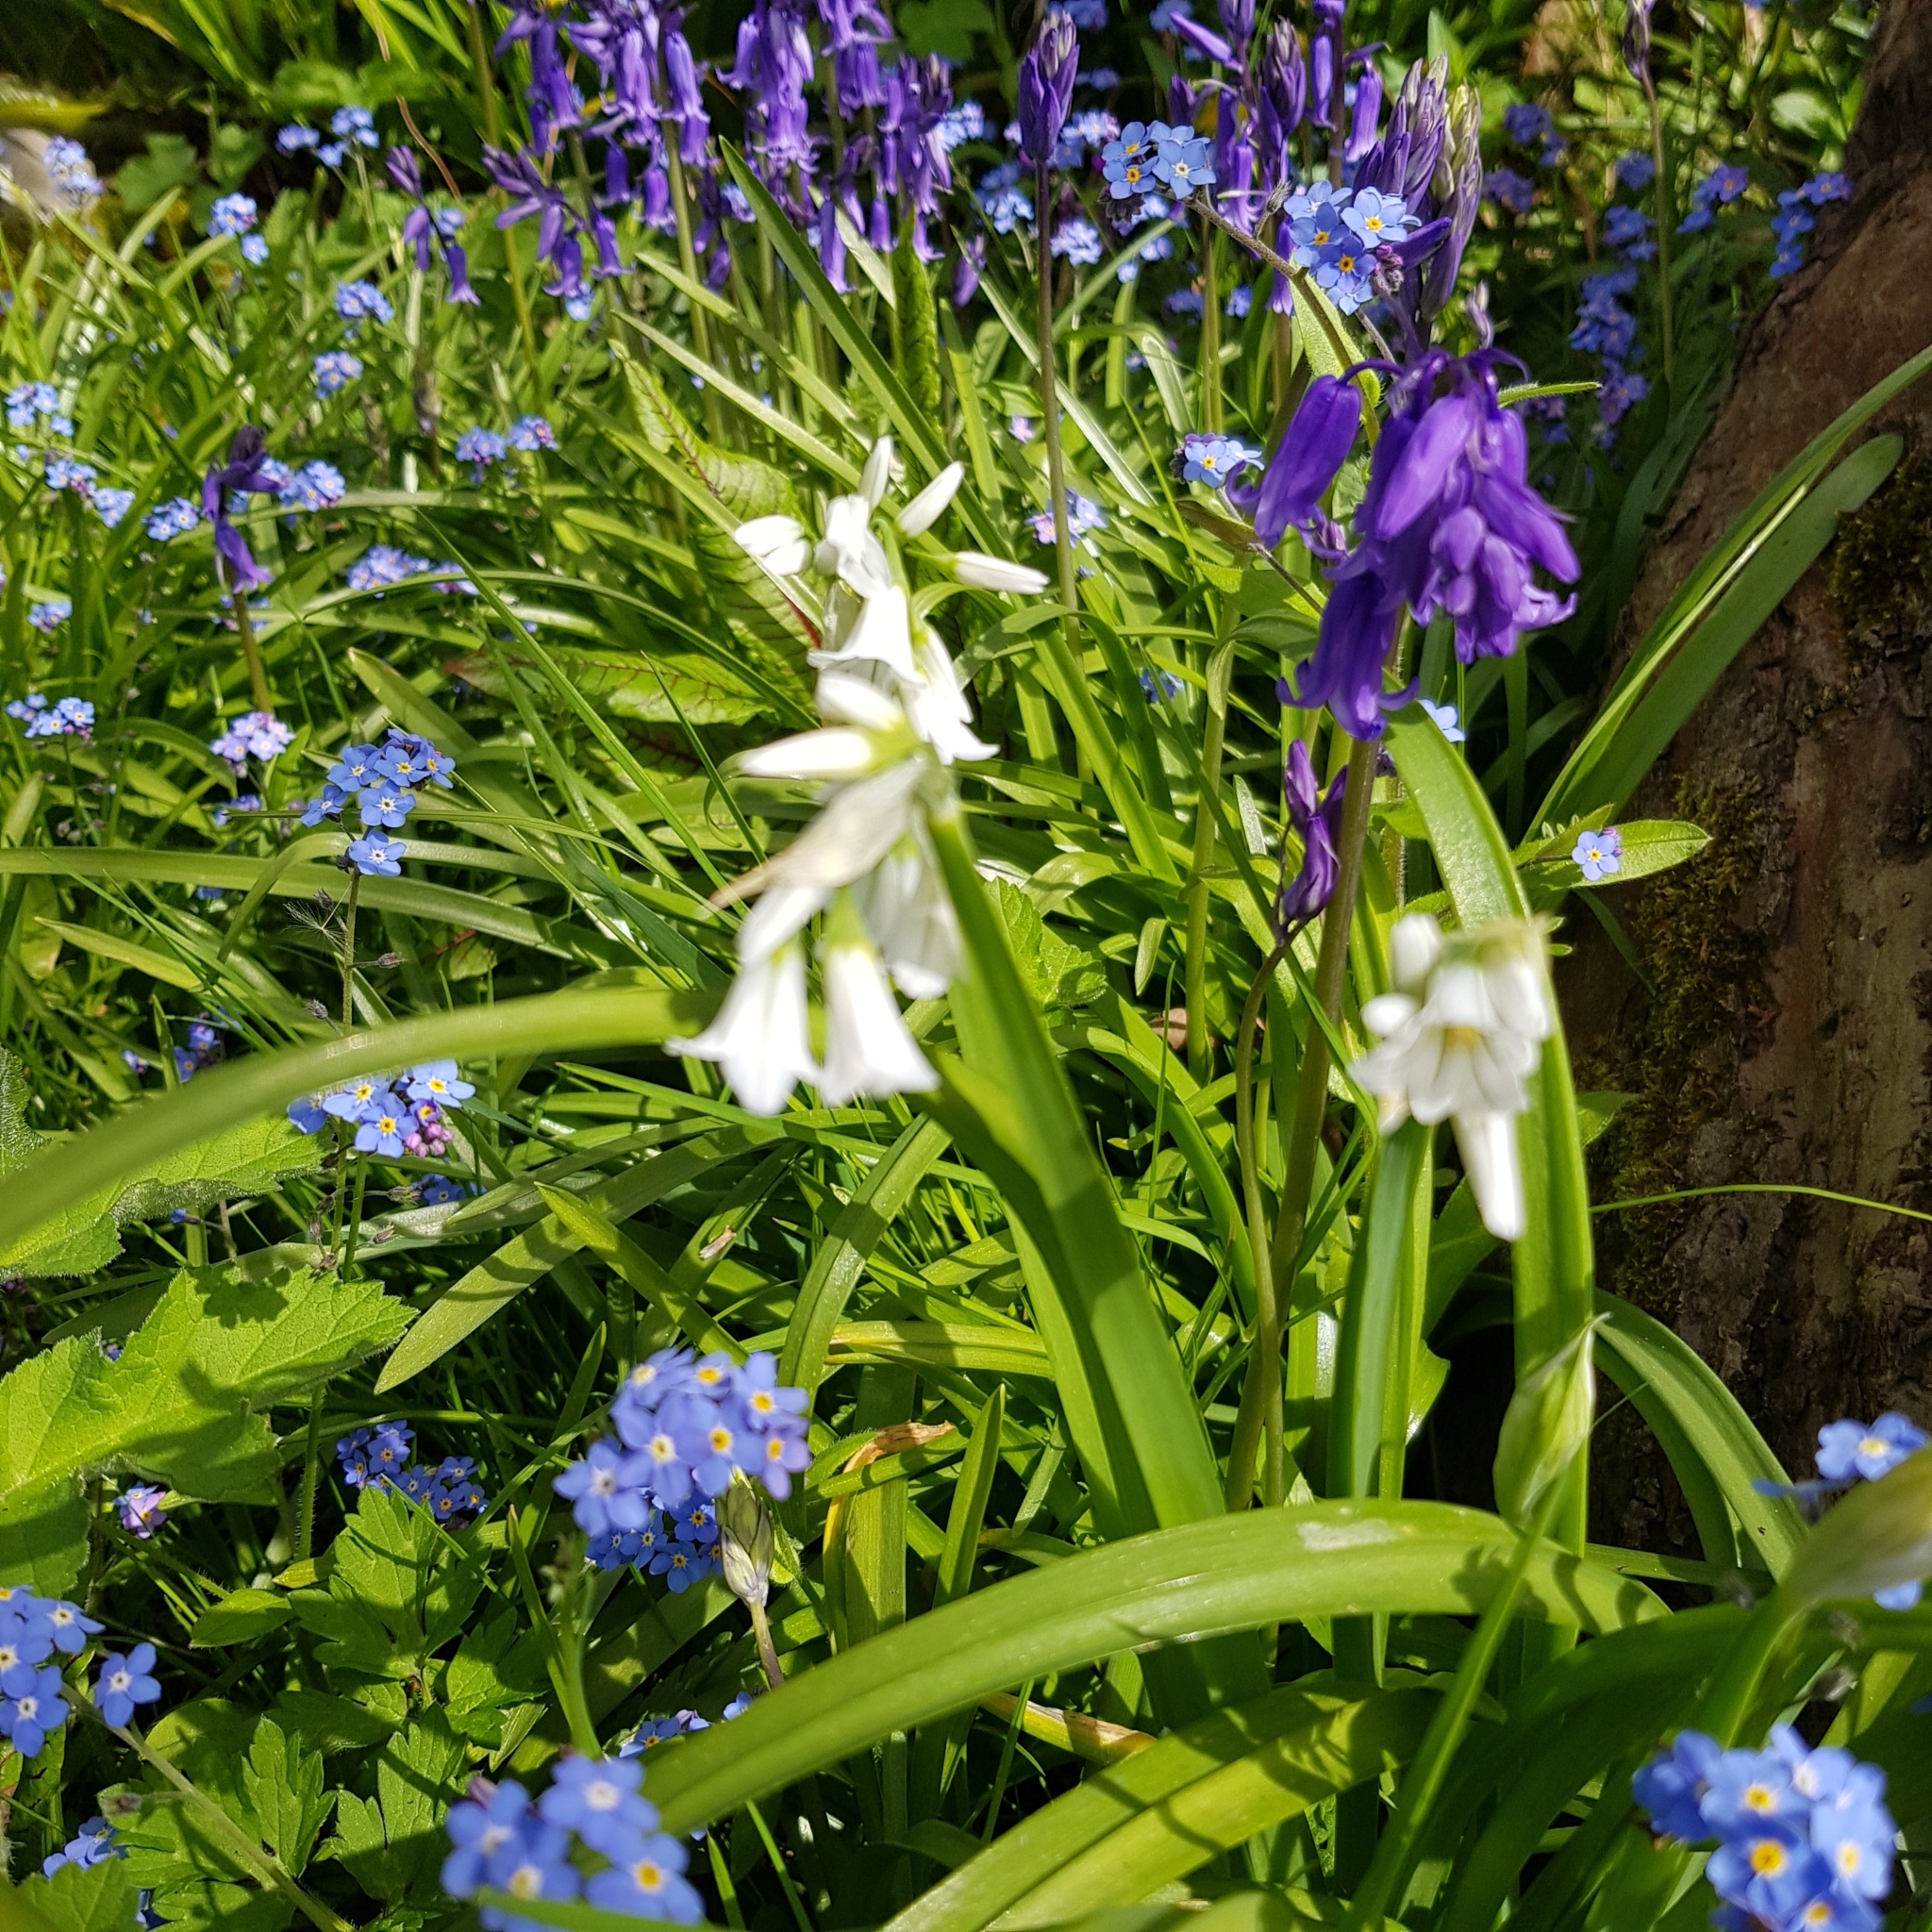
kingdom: Plantae
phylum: Tracheophyta
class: Liliopsida
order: Asparagales
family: Amaryllidaceae
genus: Allium
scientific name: Allium triquetrum
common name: Three-cornered garlic
